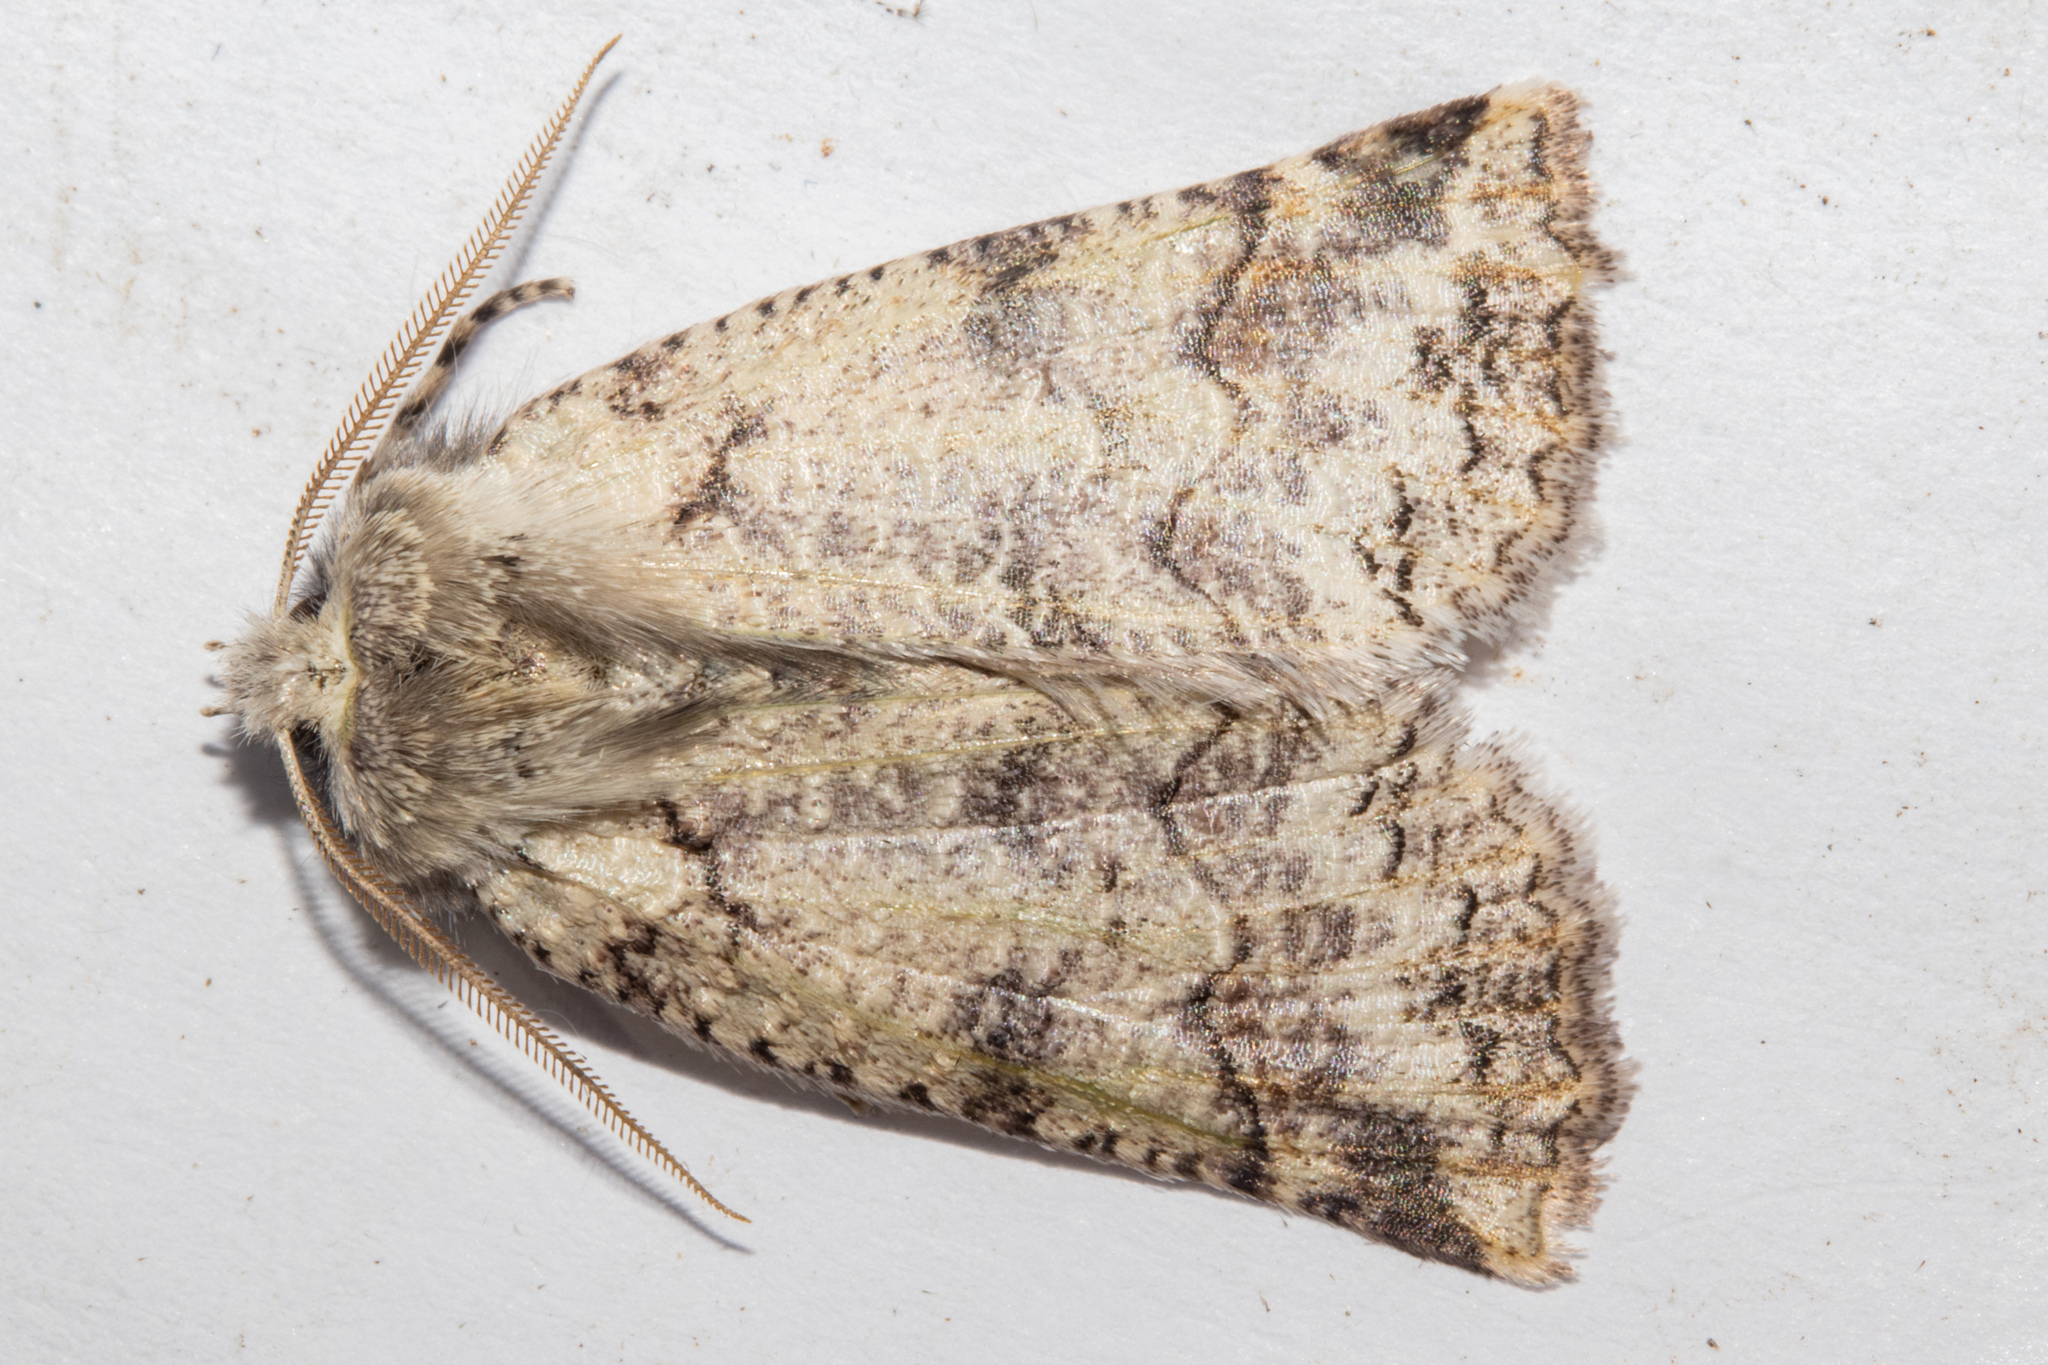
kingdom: Animalia
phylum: Arthropoda
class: Insecta
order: Lepidoptera
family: Geometridae
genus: Declana
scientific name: Declana floccosa
